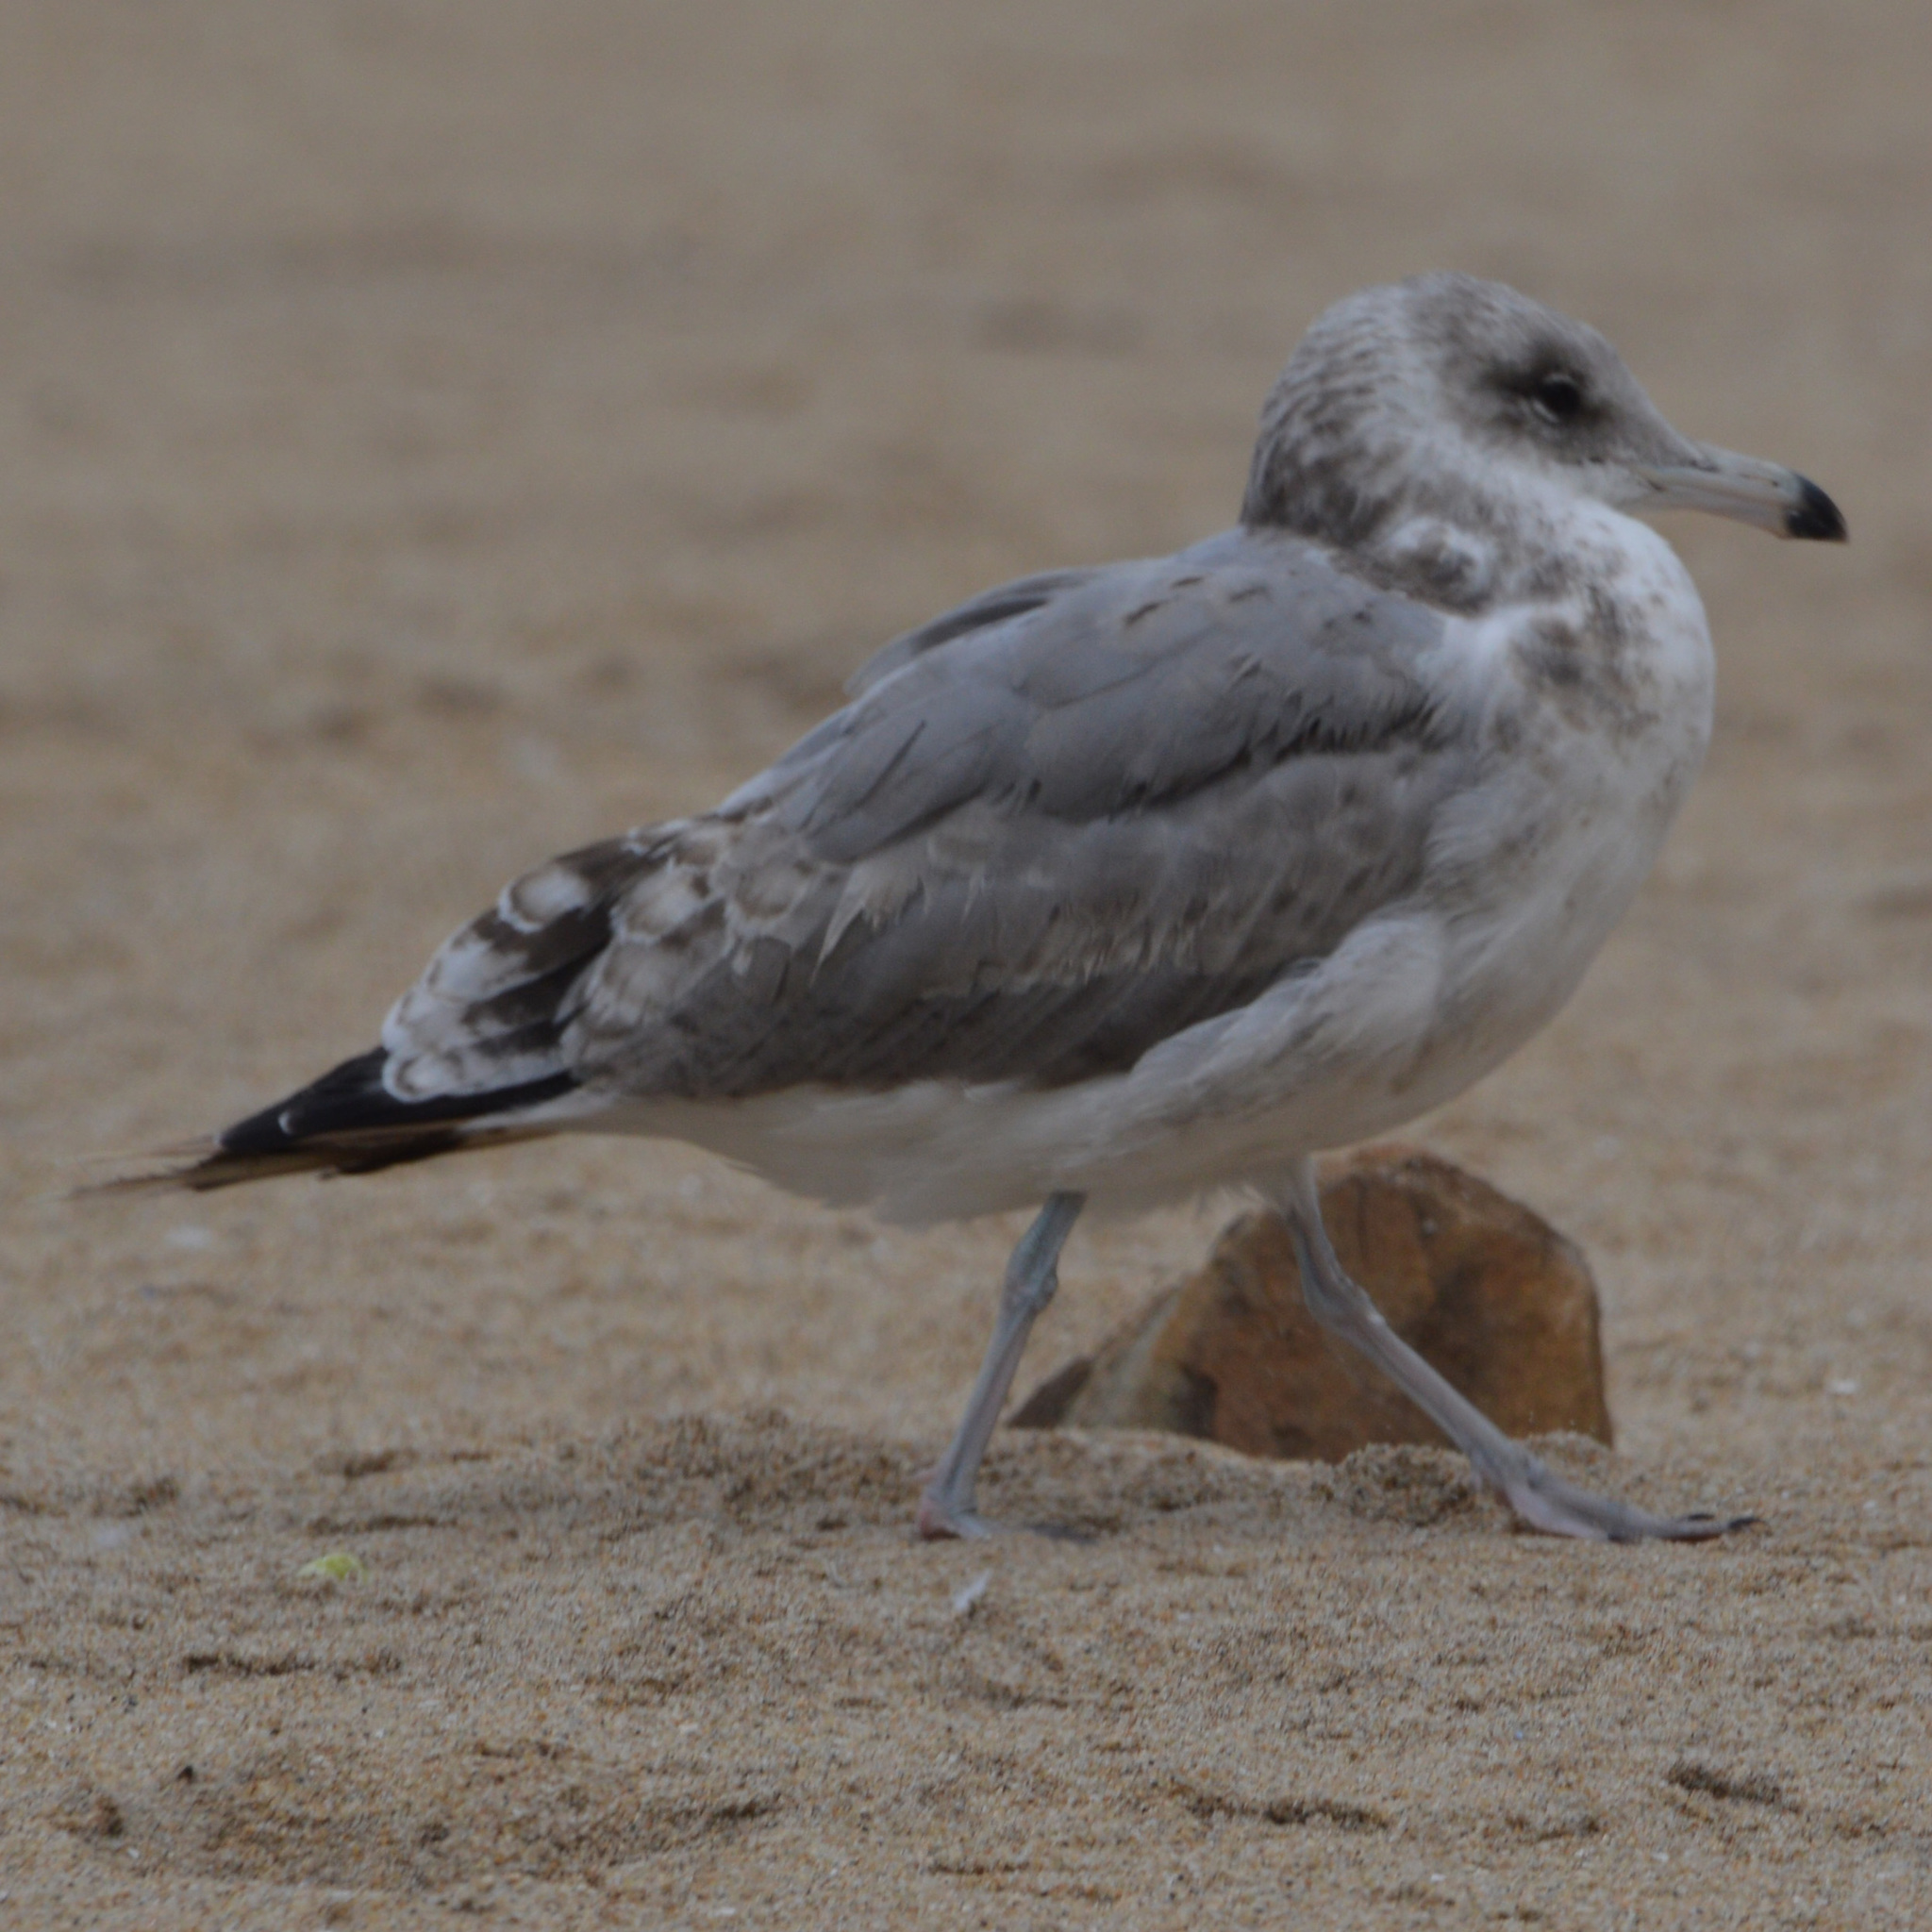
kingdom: Animalia
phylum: Chordata
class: Aves
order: Charadriiformes
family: Laridae
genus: Larus
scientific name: Larus californicus
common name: California gull
